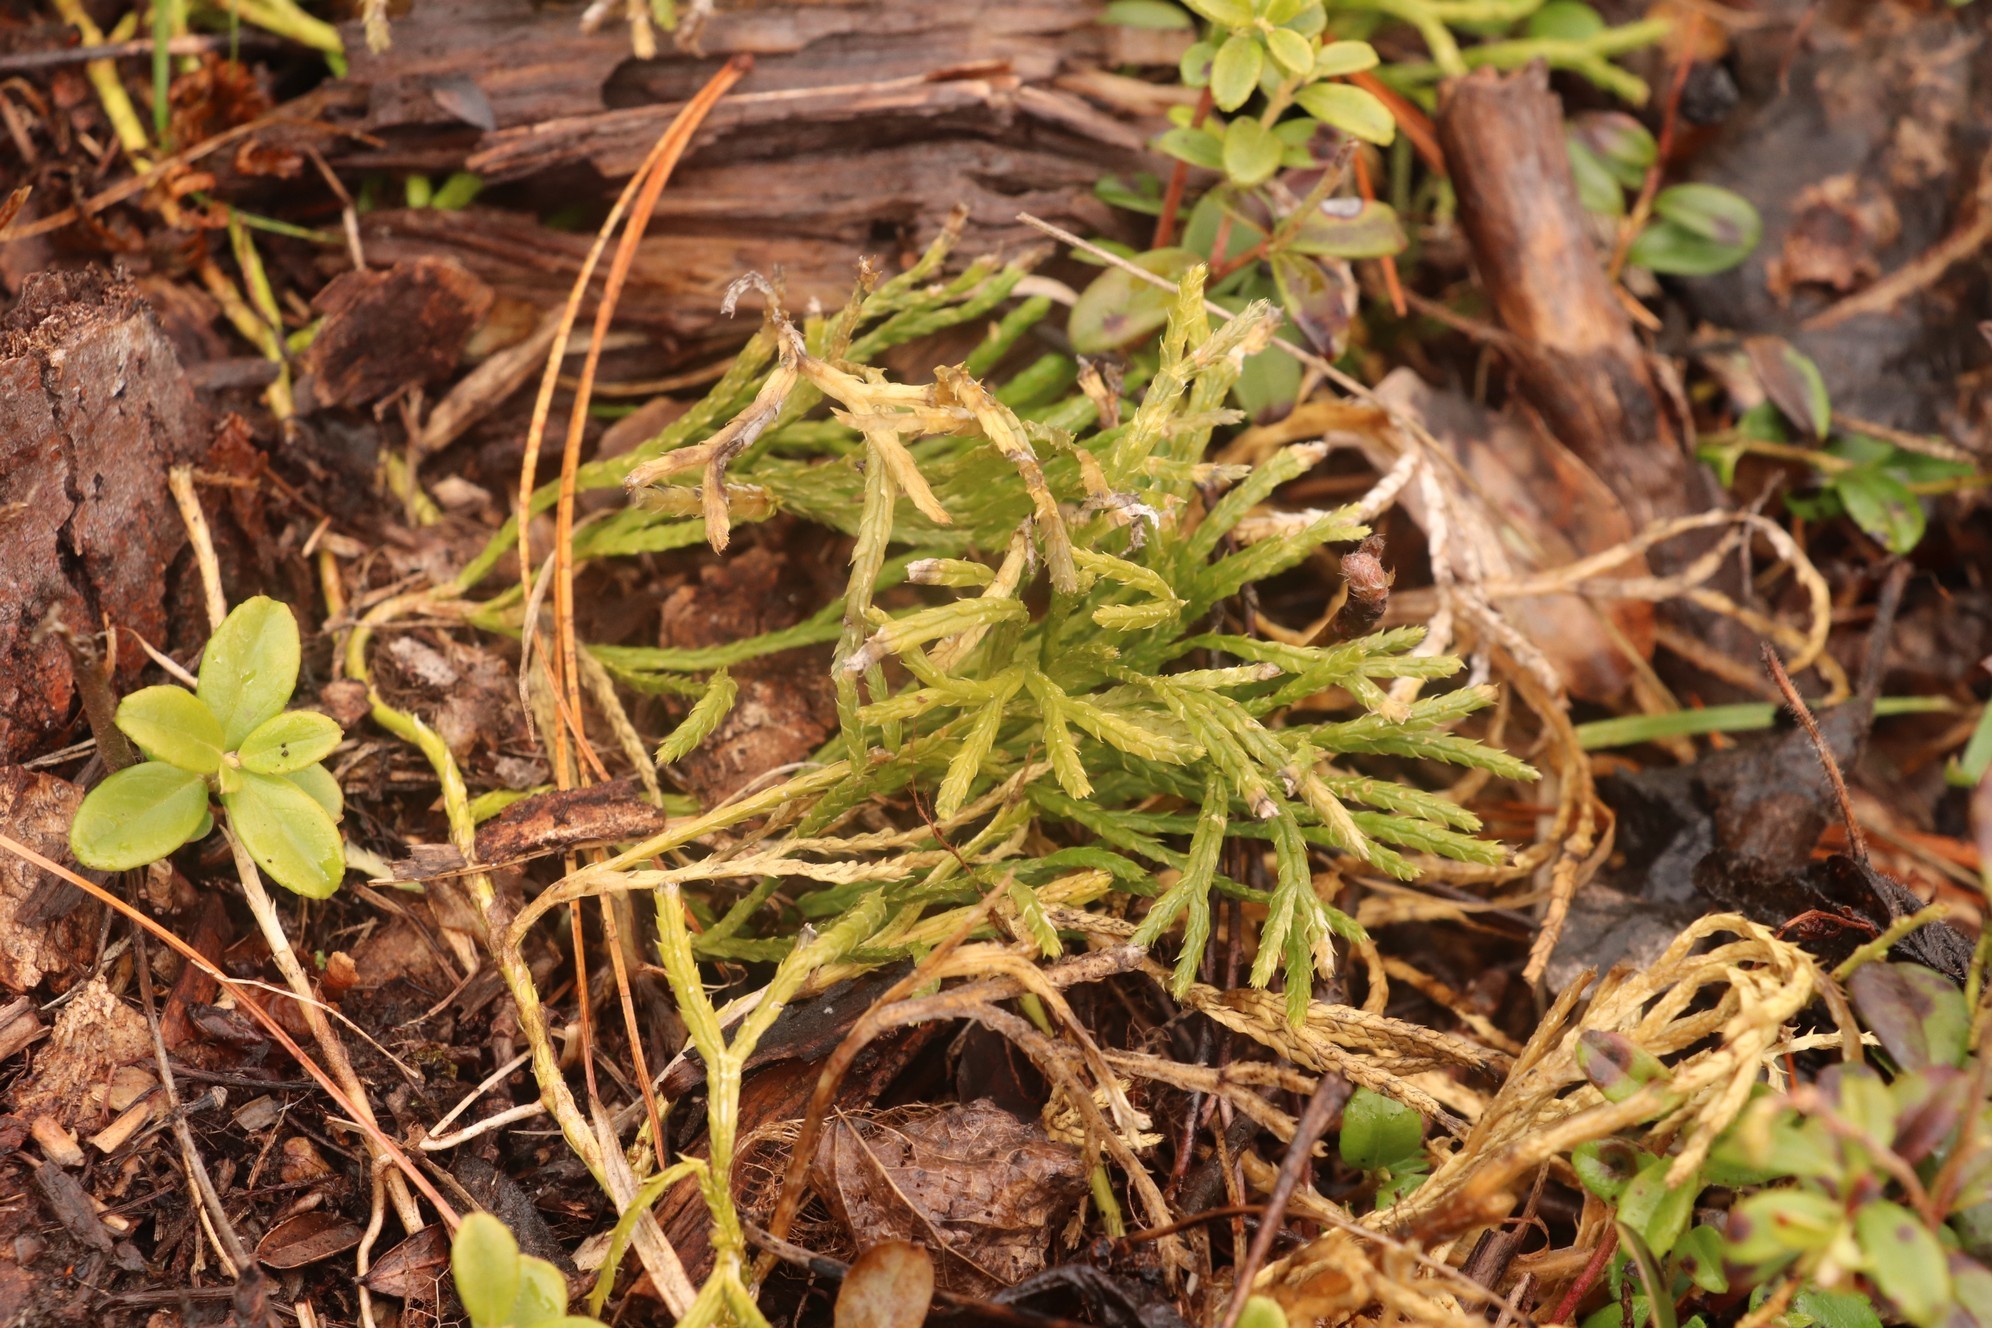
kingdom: Plantae
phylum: Tracheophyta
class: Lycopodiopsida
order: Lycopodiales
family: Lycopodiaceae
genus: Diphasiastrum
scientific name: Diphasiastrum complanatum
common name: Northern running-pine
